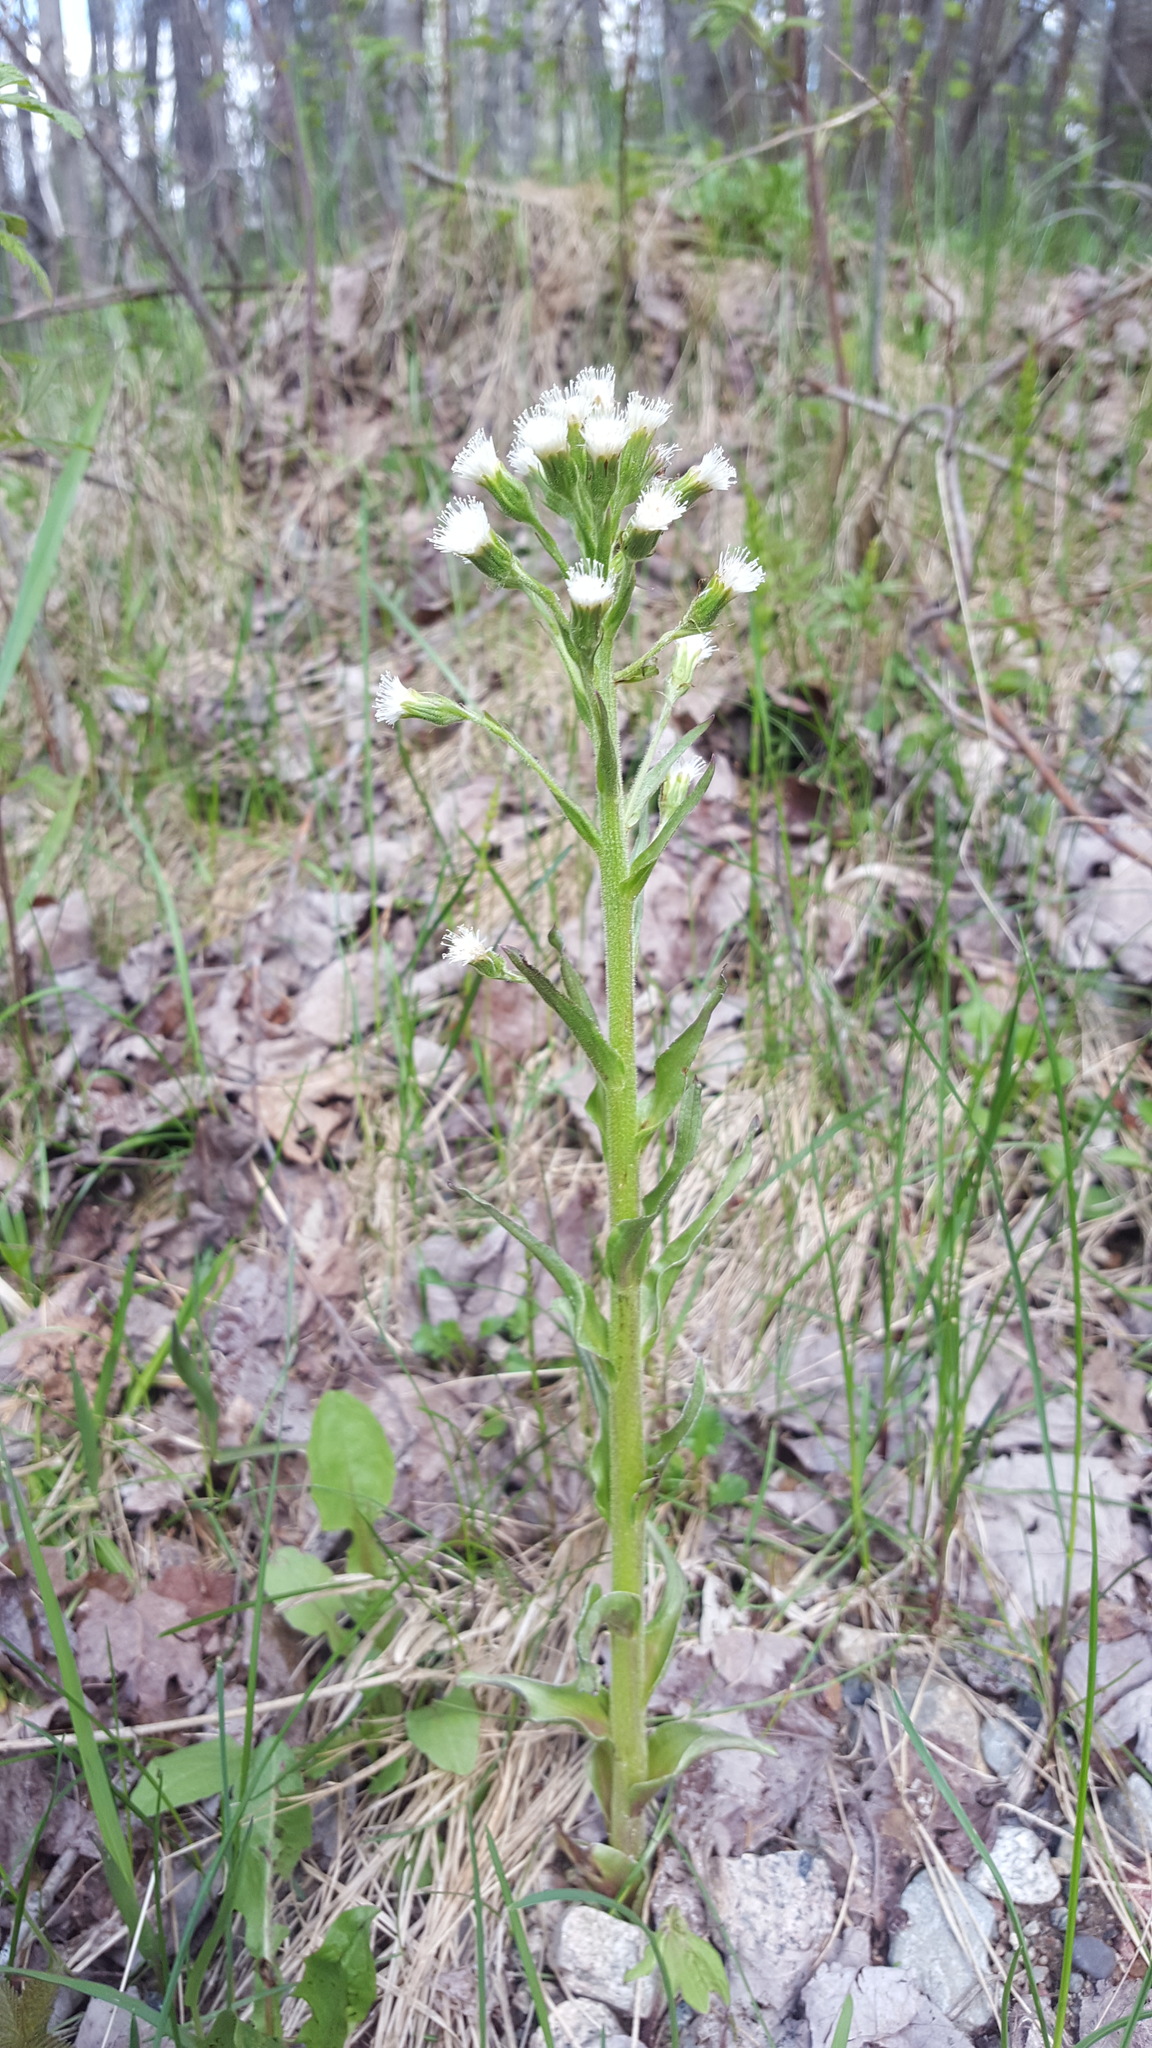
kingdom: Plantae
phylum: Tracheophyta
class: Magnoliopsida
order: Asterales
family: Asteraceae
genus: Petasites
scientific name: Petasites frigidus
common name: Arctic butterbur
